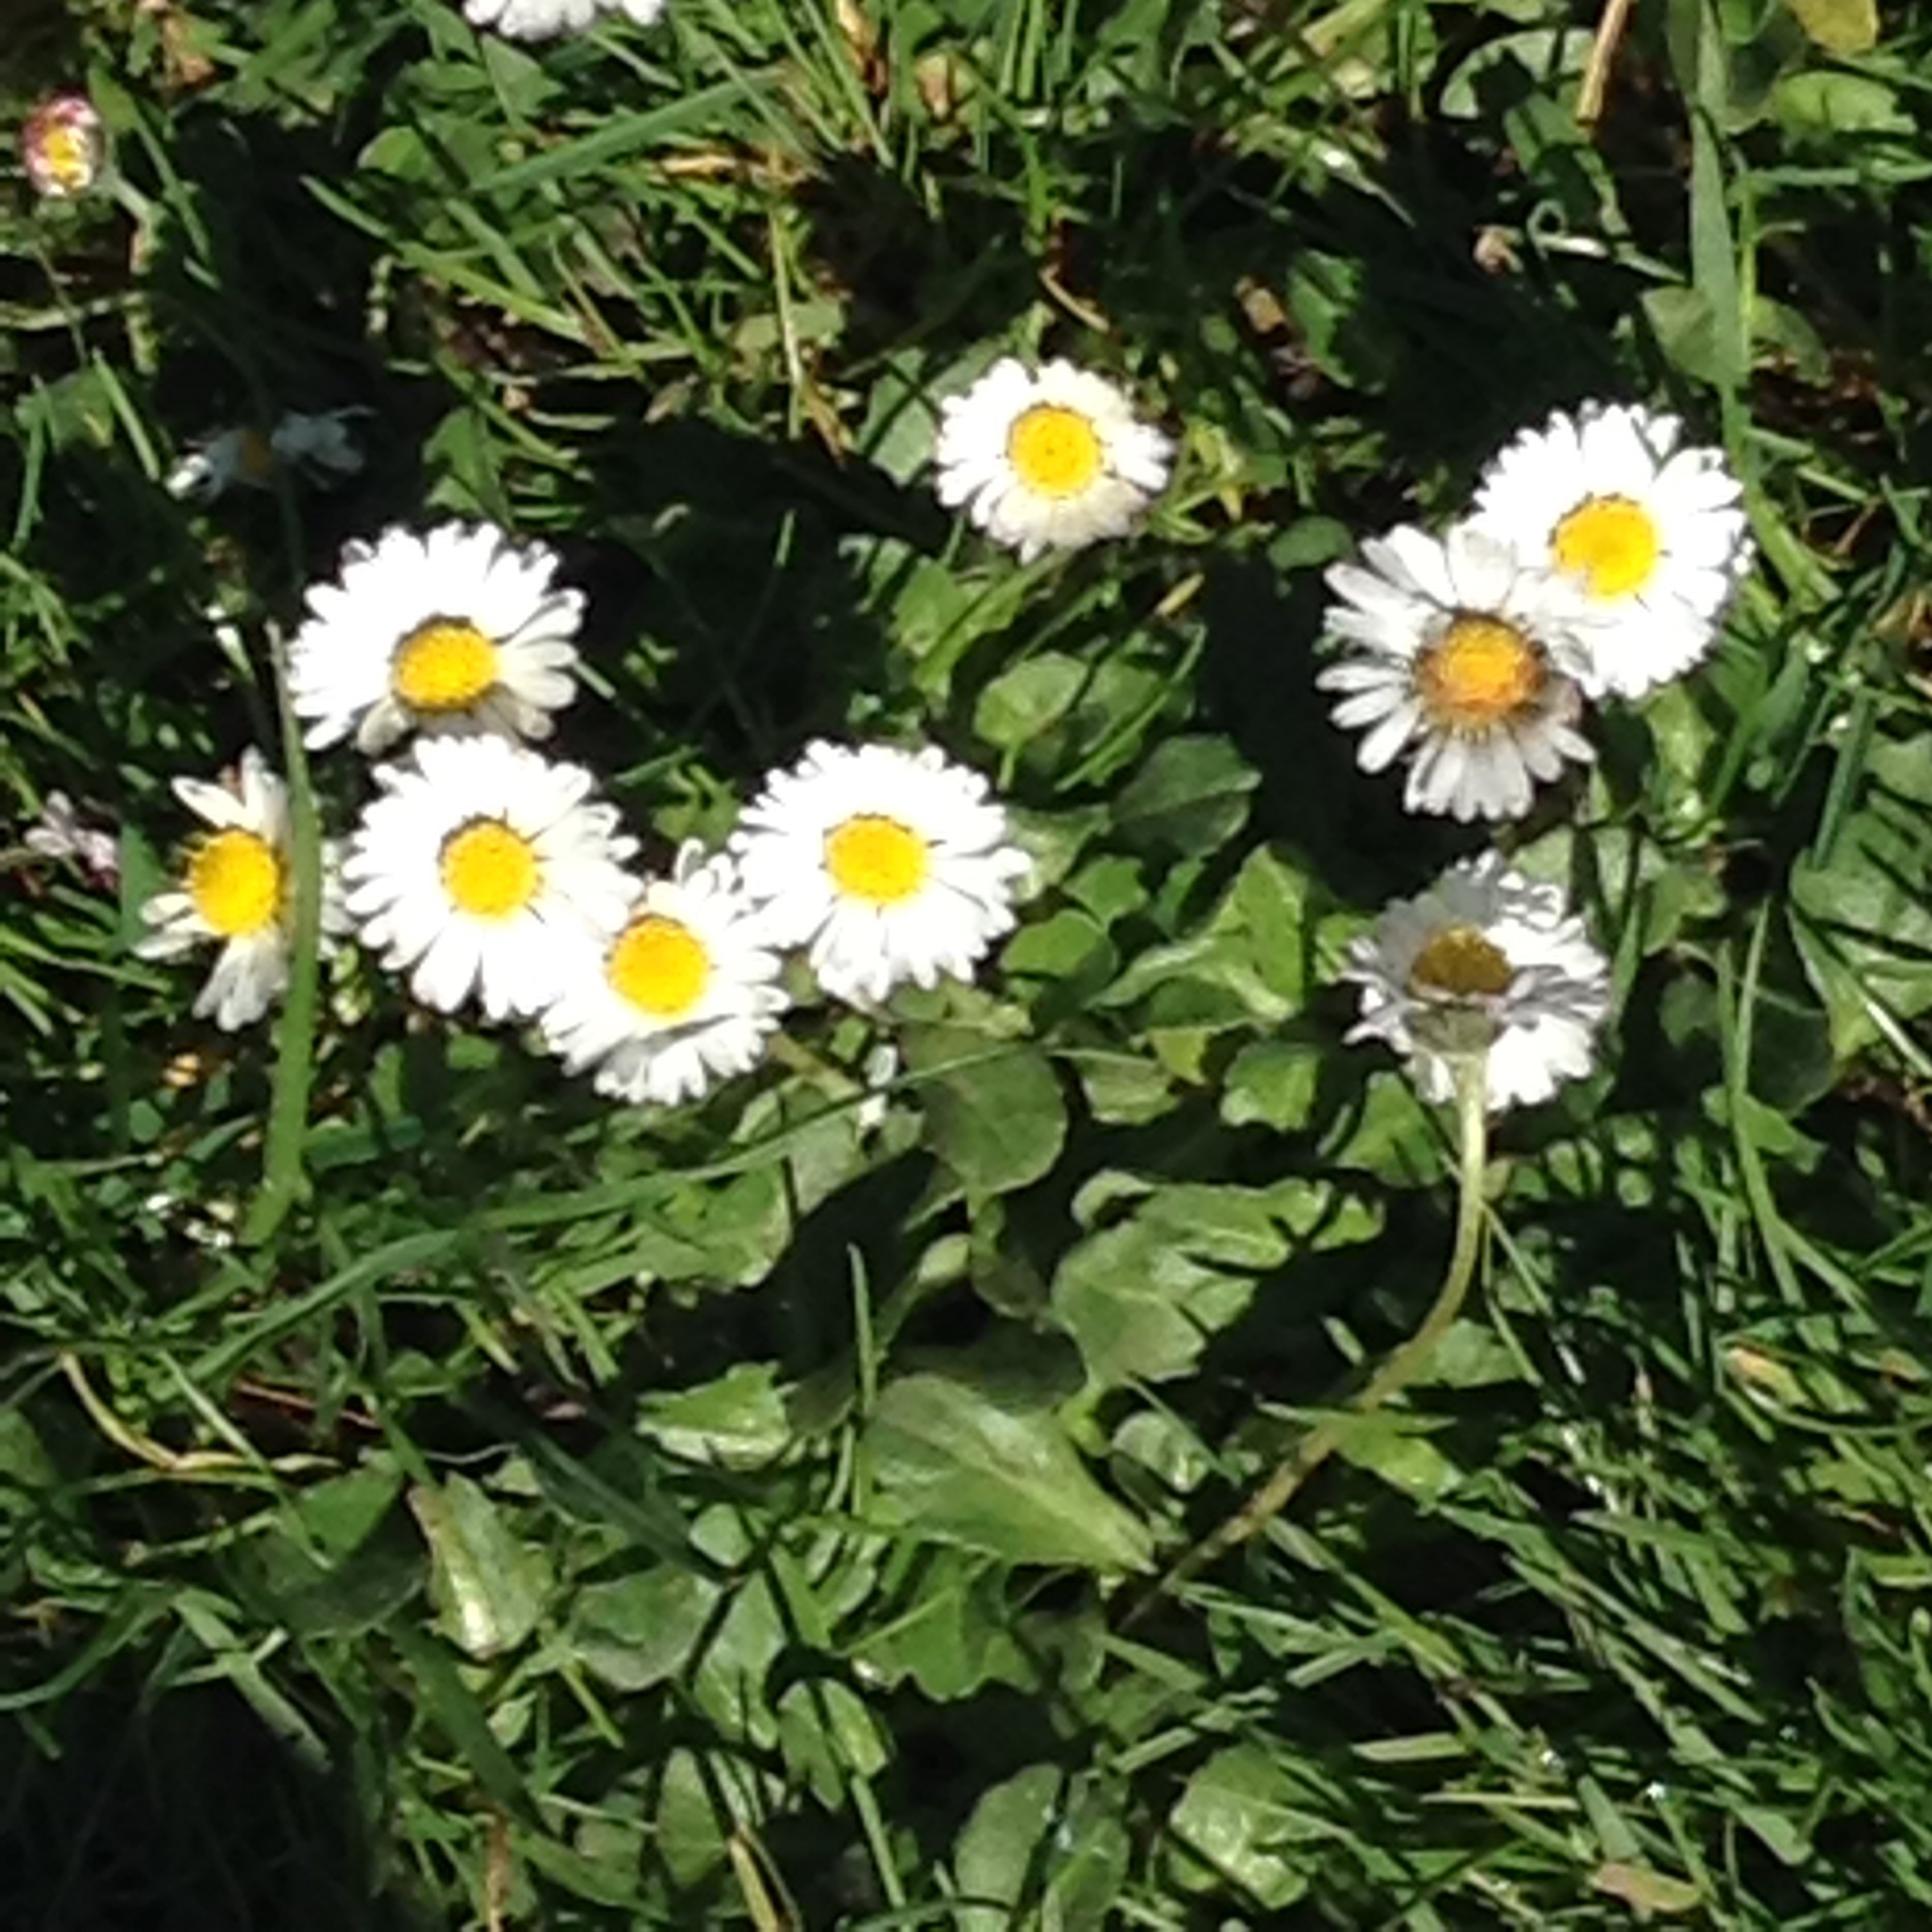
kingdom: Plantae
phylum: Tracheophyta
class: Magnoliopsida
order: Asterales
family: Asteraceae
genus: Bellis
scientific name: Bellis perennis
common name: Lawndaisy
